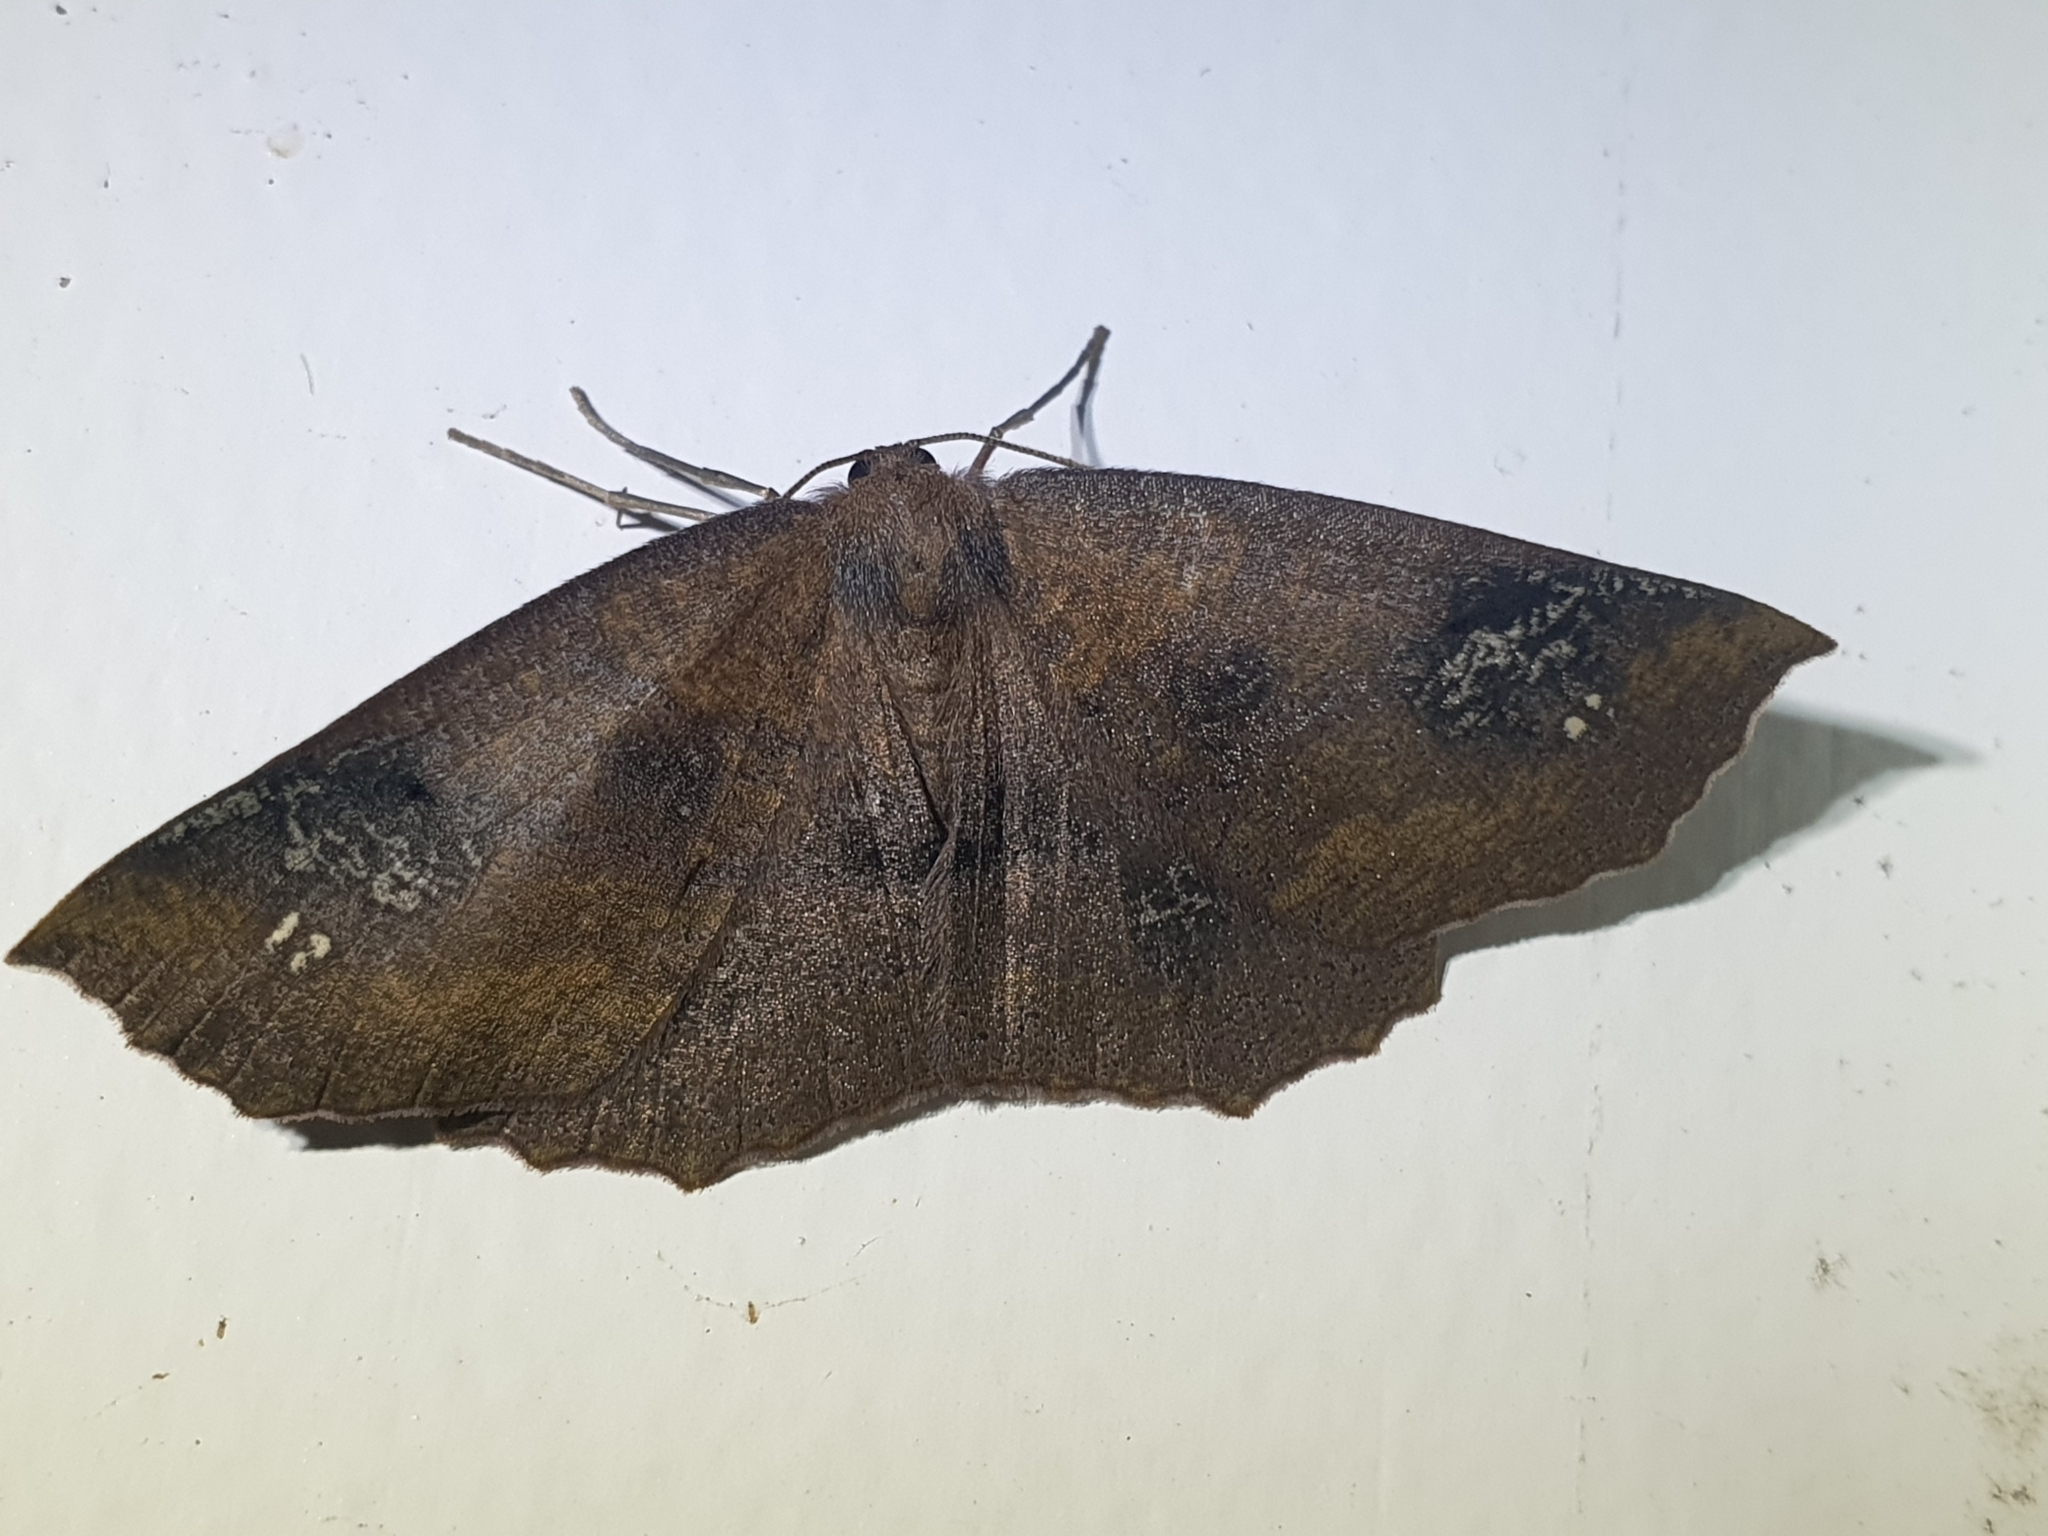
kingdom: Animalia
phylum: Arthropoda
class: Insecta
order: Lepidoptera
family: Geometridae
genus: Xyridacma
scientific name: Xyridacma ustaria
